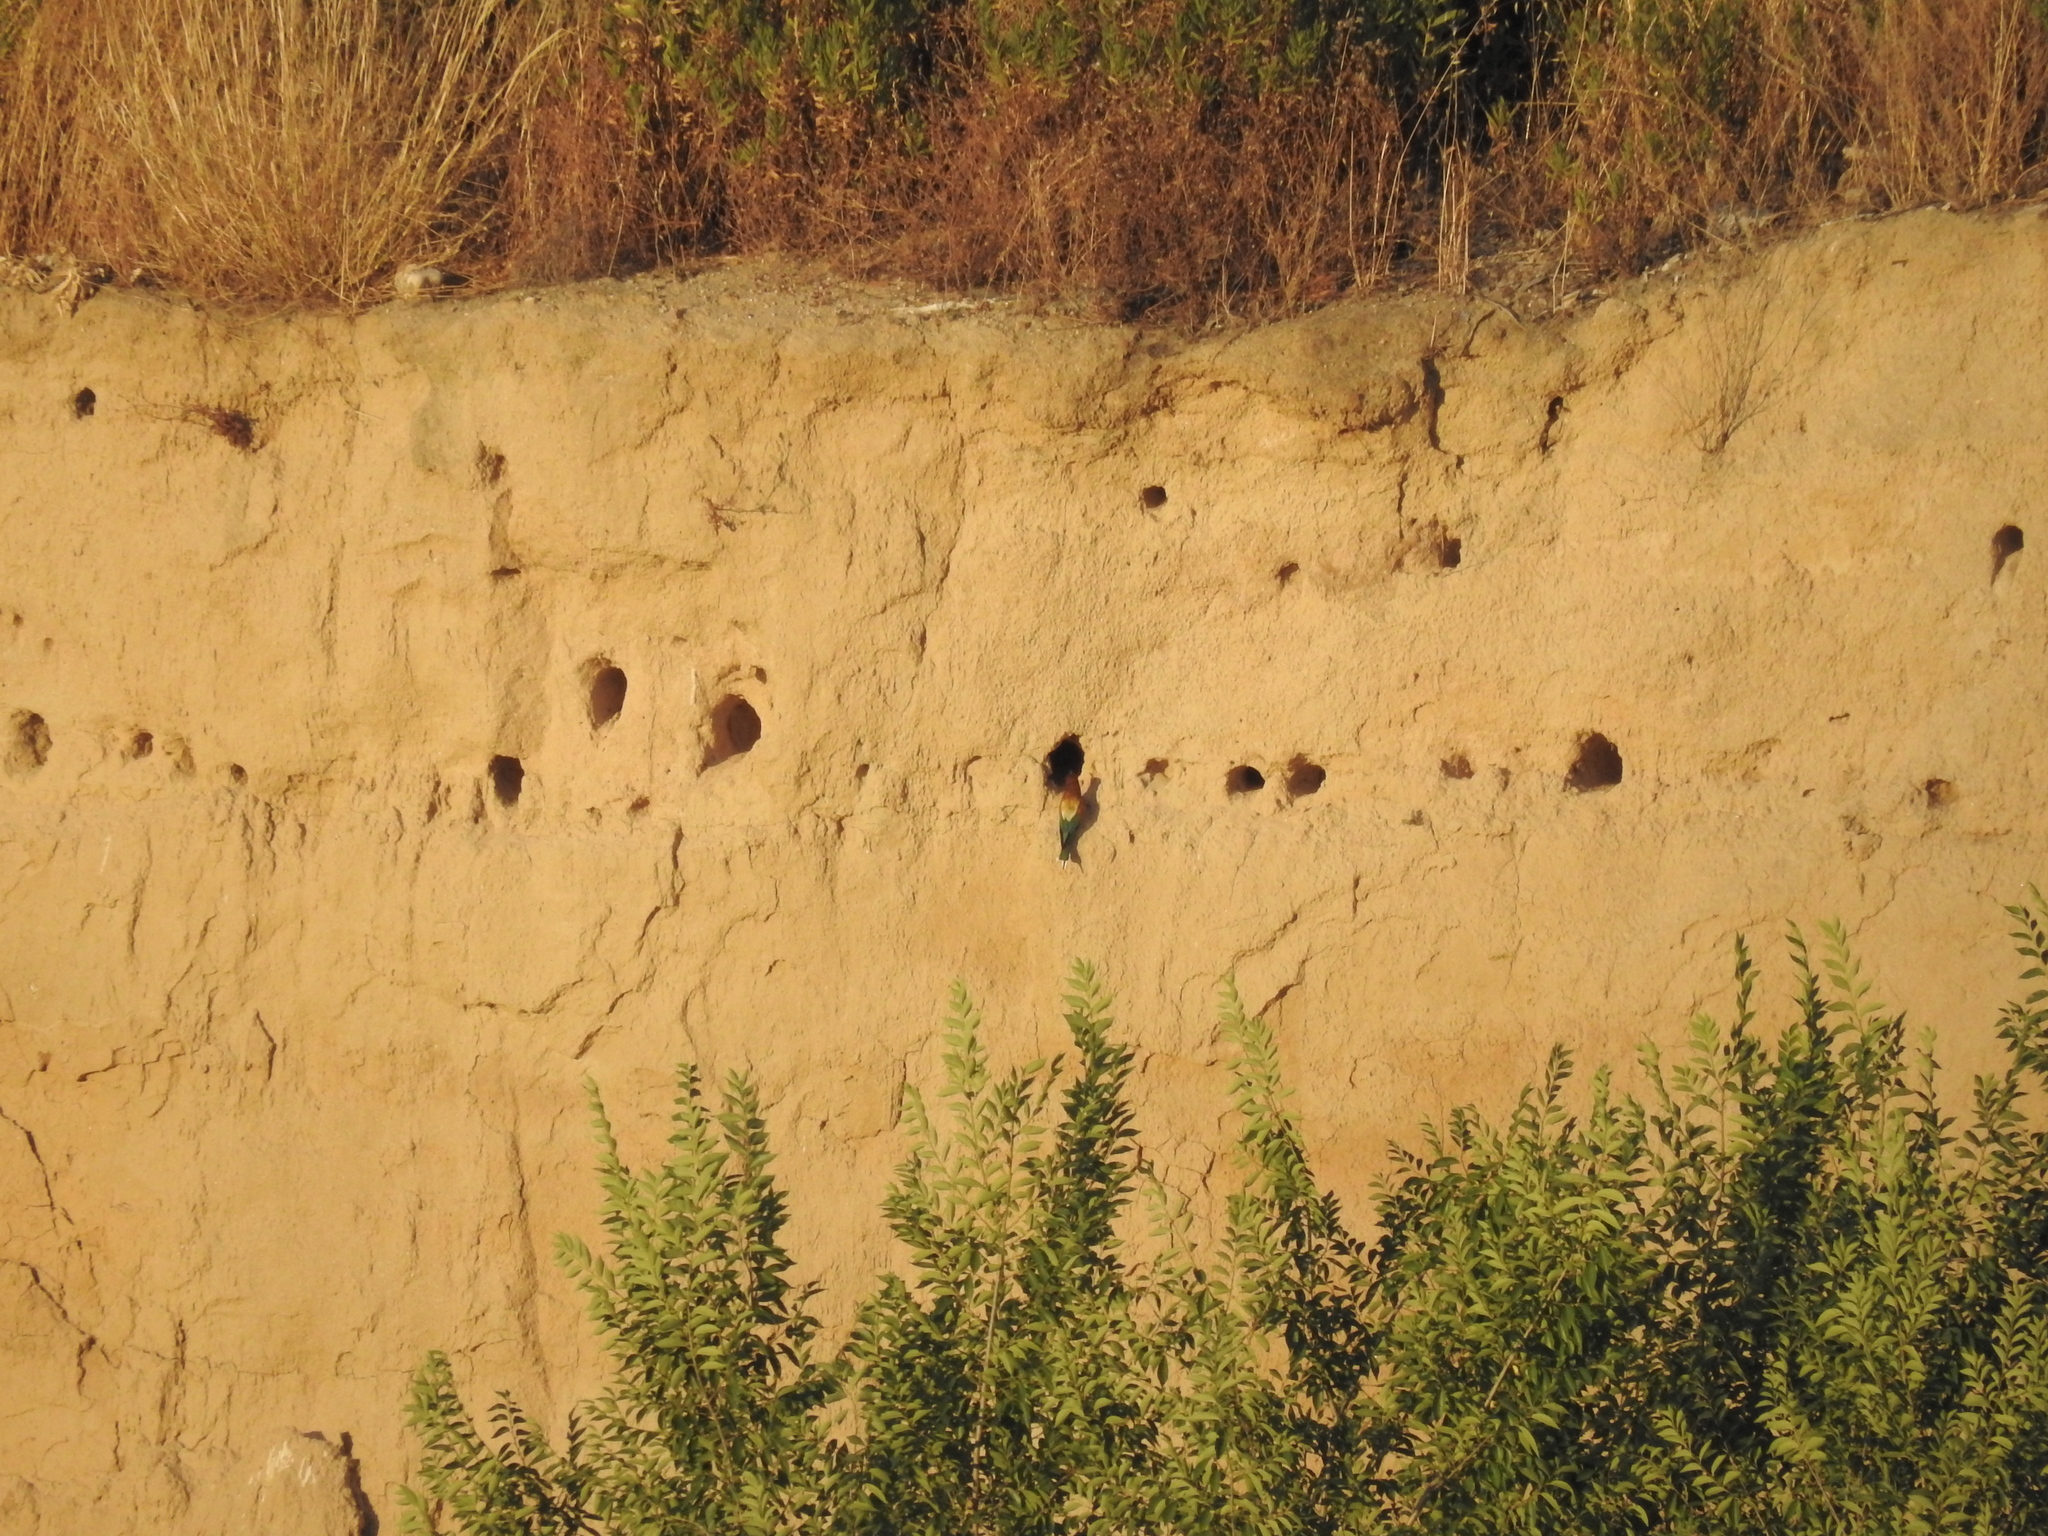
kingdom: Animalia
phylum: Chordata
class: Aves
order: Coraciiformes
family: Meropidae
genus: Merops
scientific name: Merops apiaster
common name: European bee-eater
